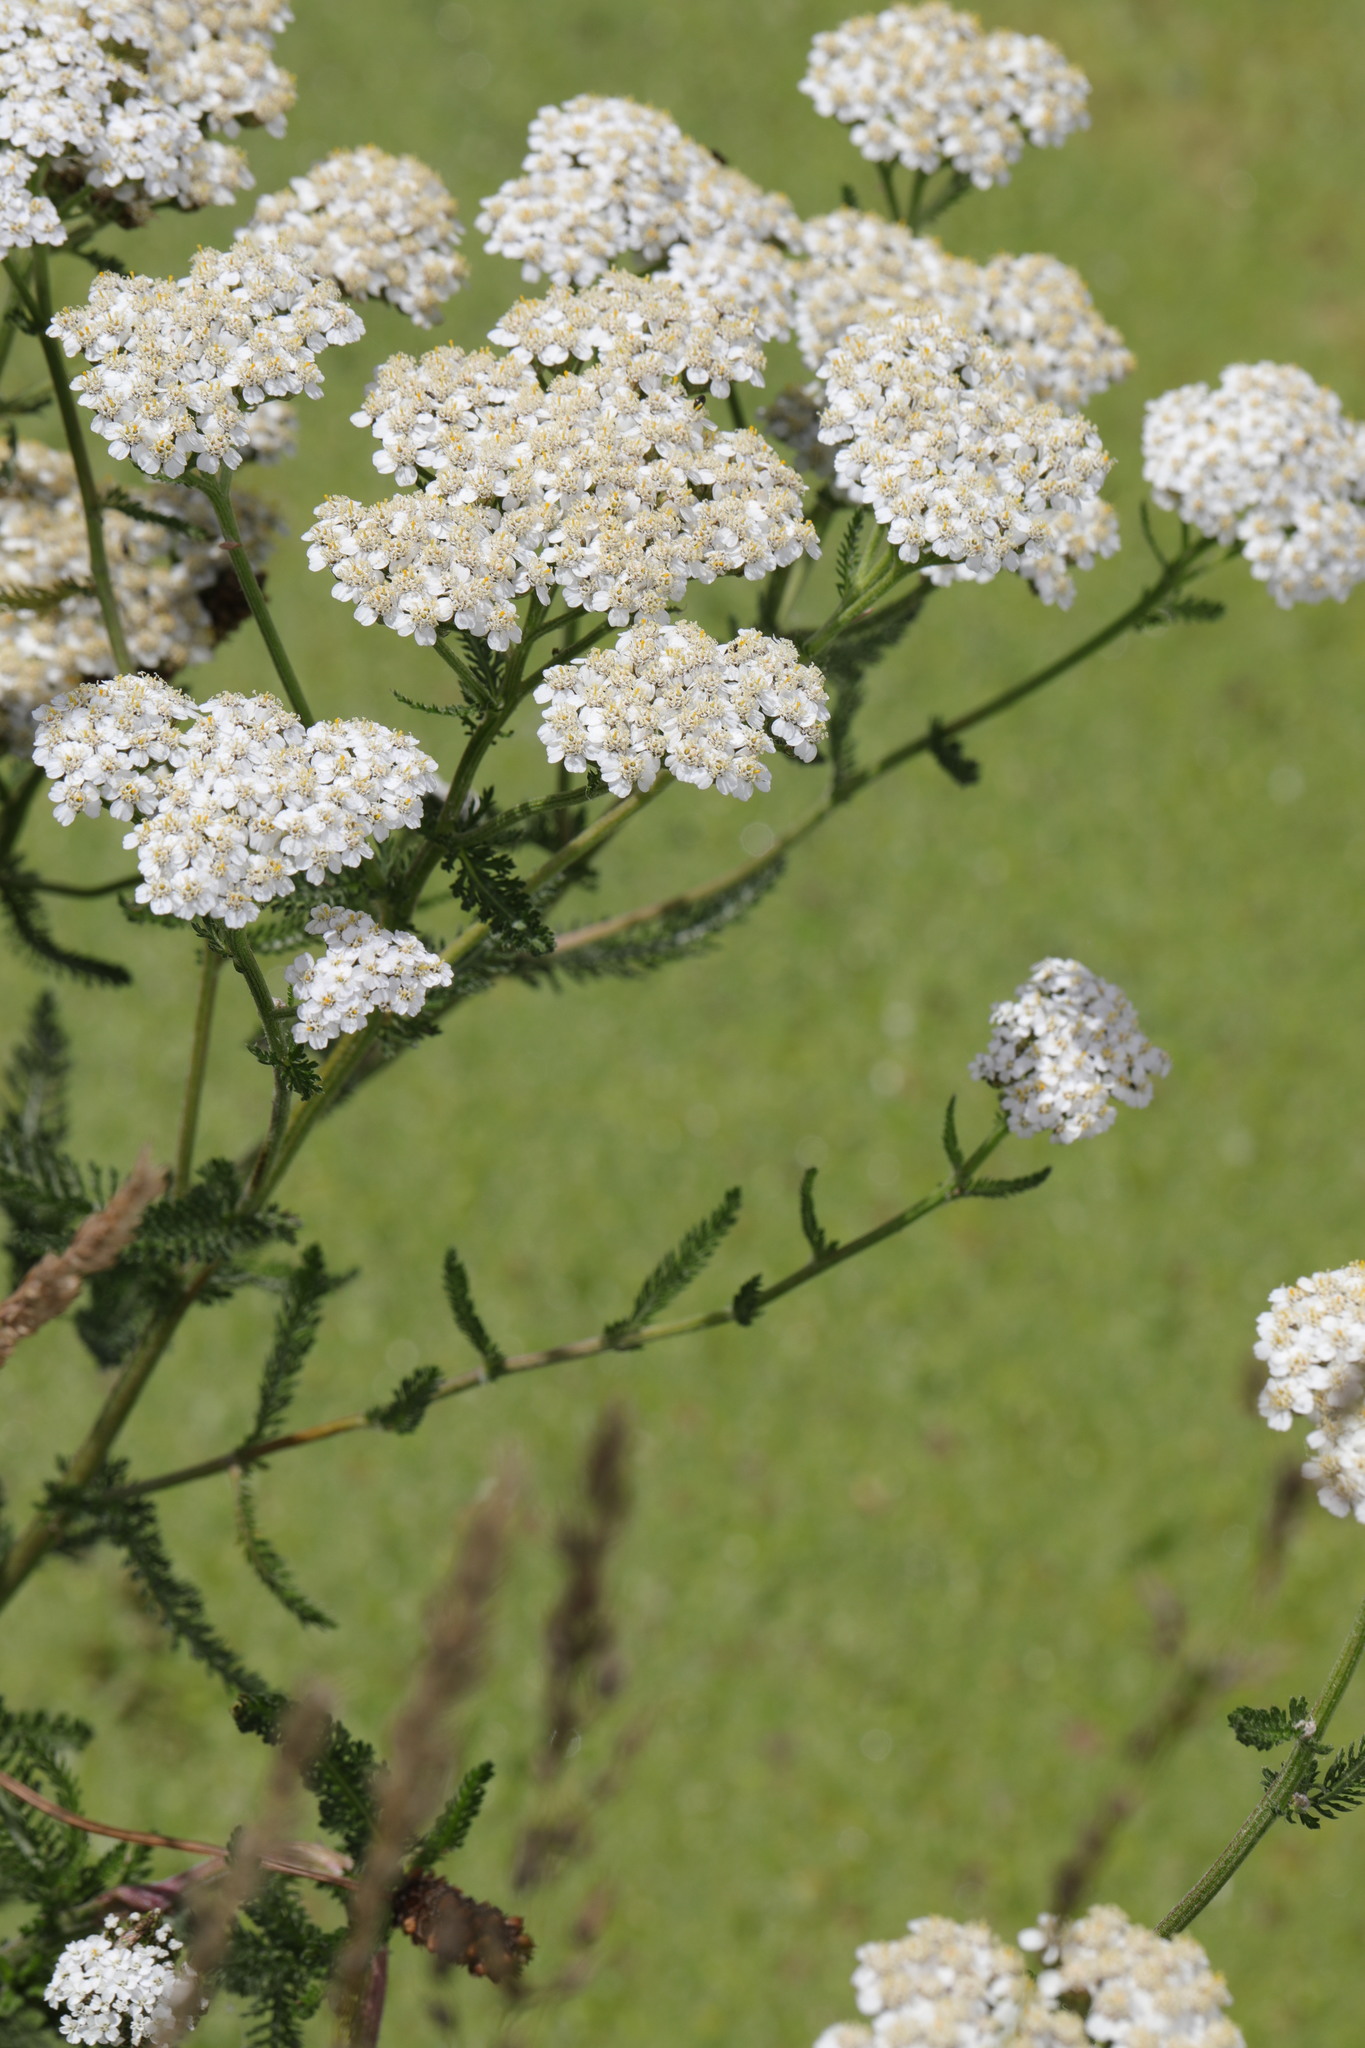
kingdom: Plantae
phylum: Tracheophyta
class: Magnoliopsida
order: Asterales
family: Asteraceae
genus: Achillea
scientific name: Achillea millefolium
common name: Yarrow
